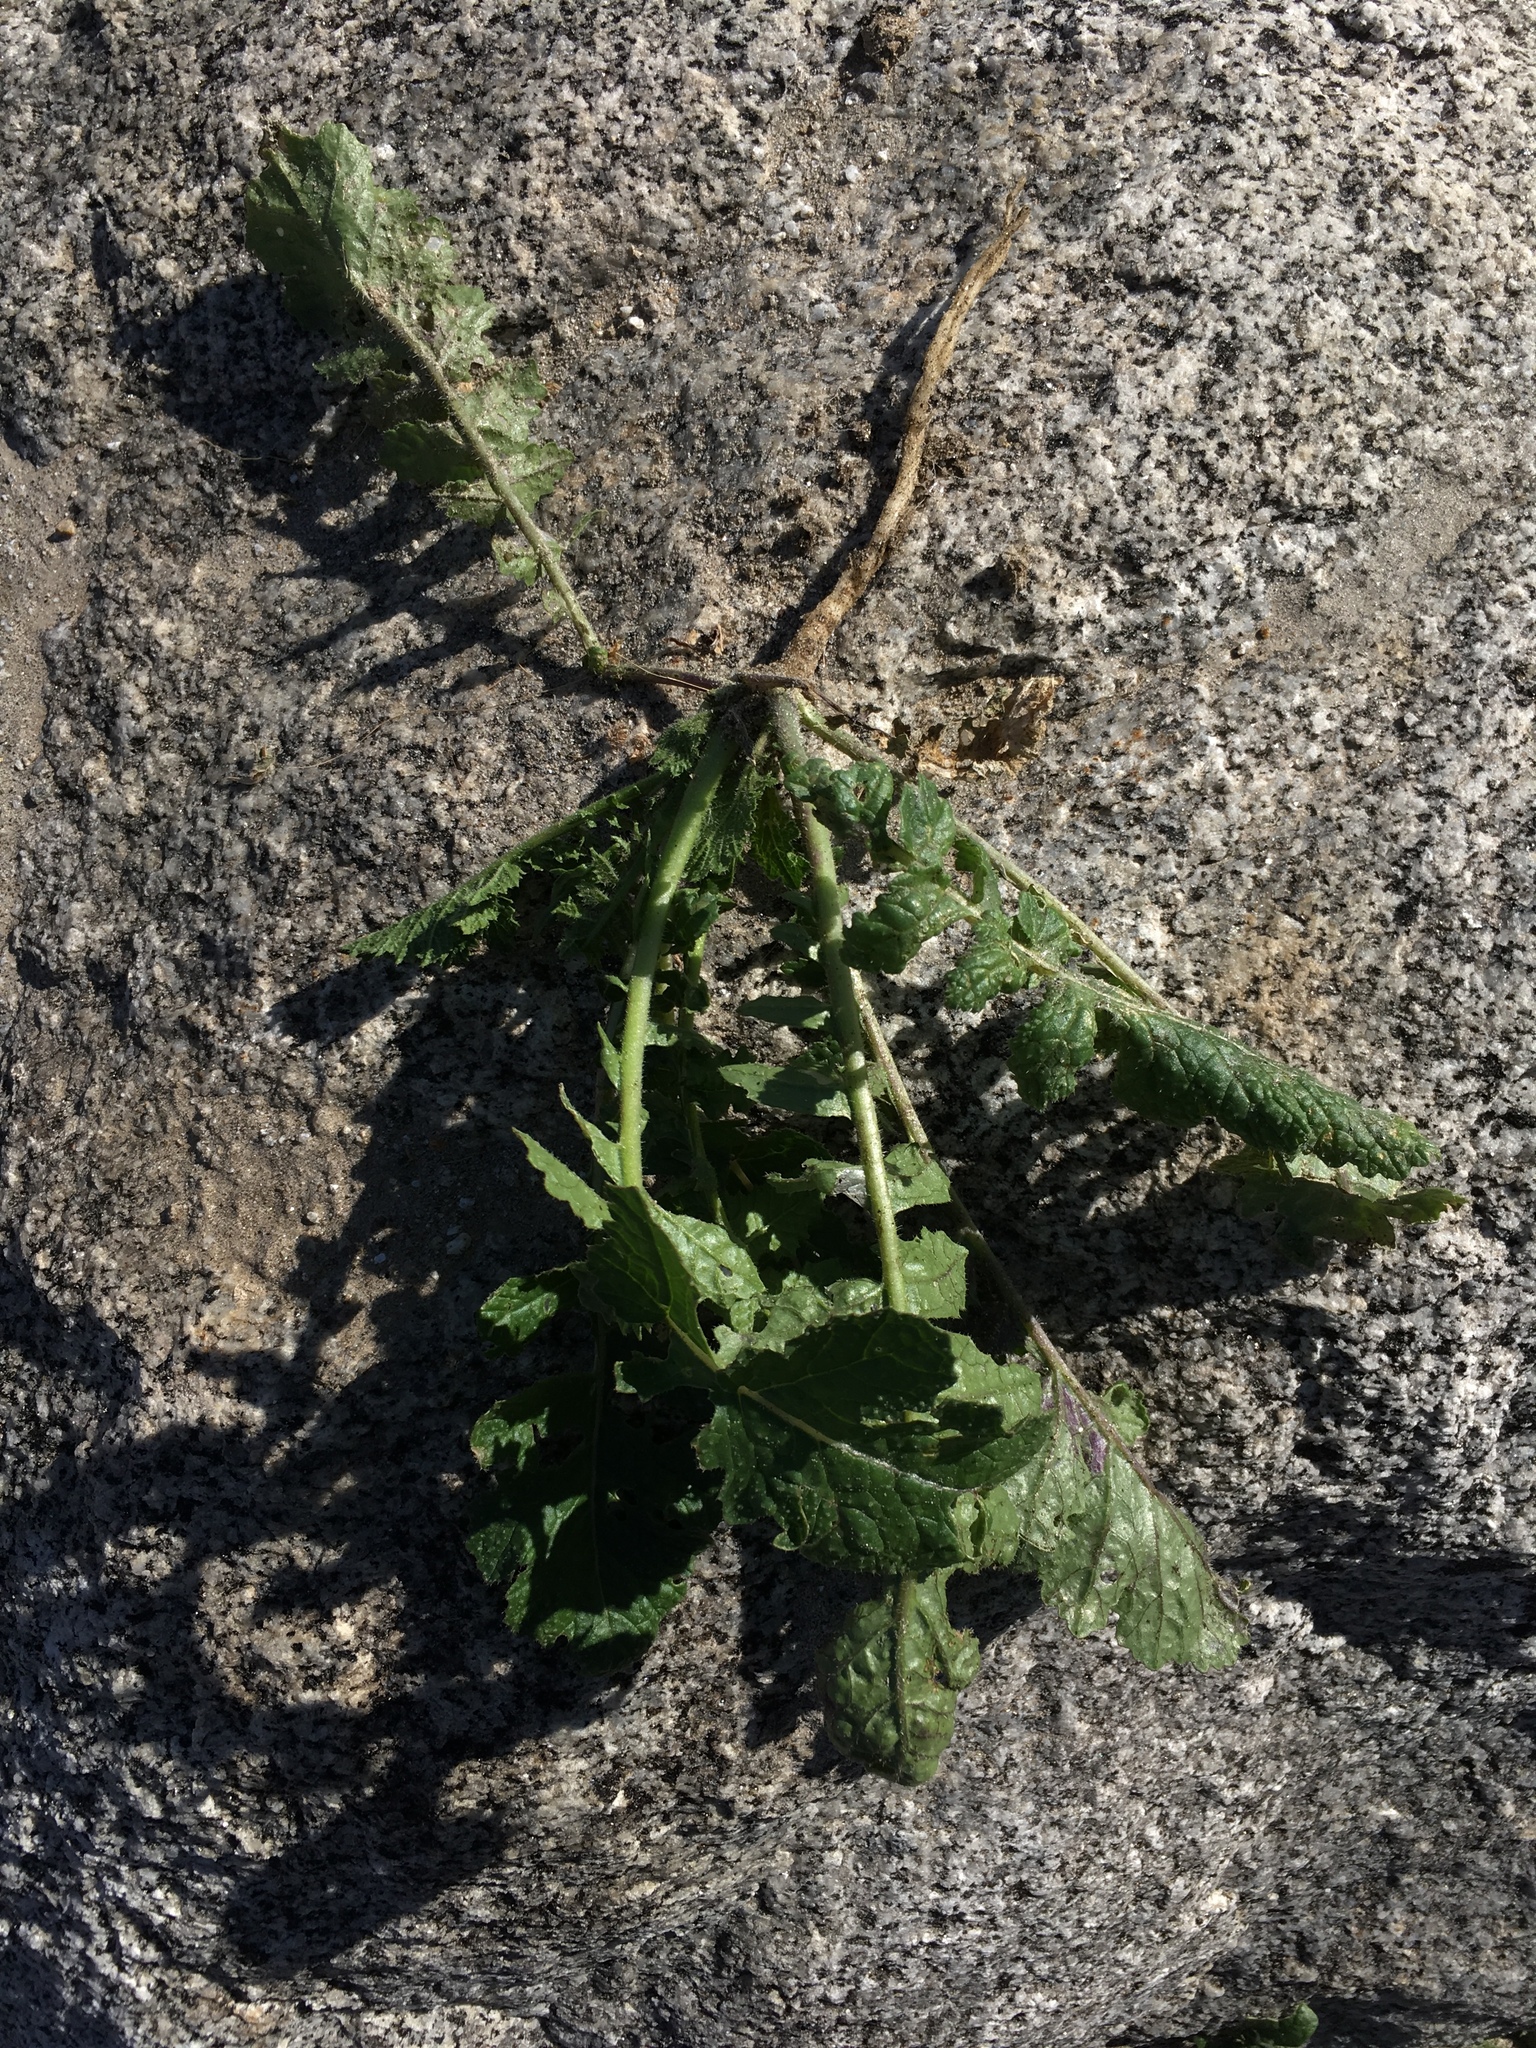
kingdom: Plantae
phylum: Tracheophyta
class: Magnoliopsida
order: Brassicales
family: Brassicaceae
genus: Brassica
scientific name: Brassica tournefortii
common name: Pale cabbage
